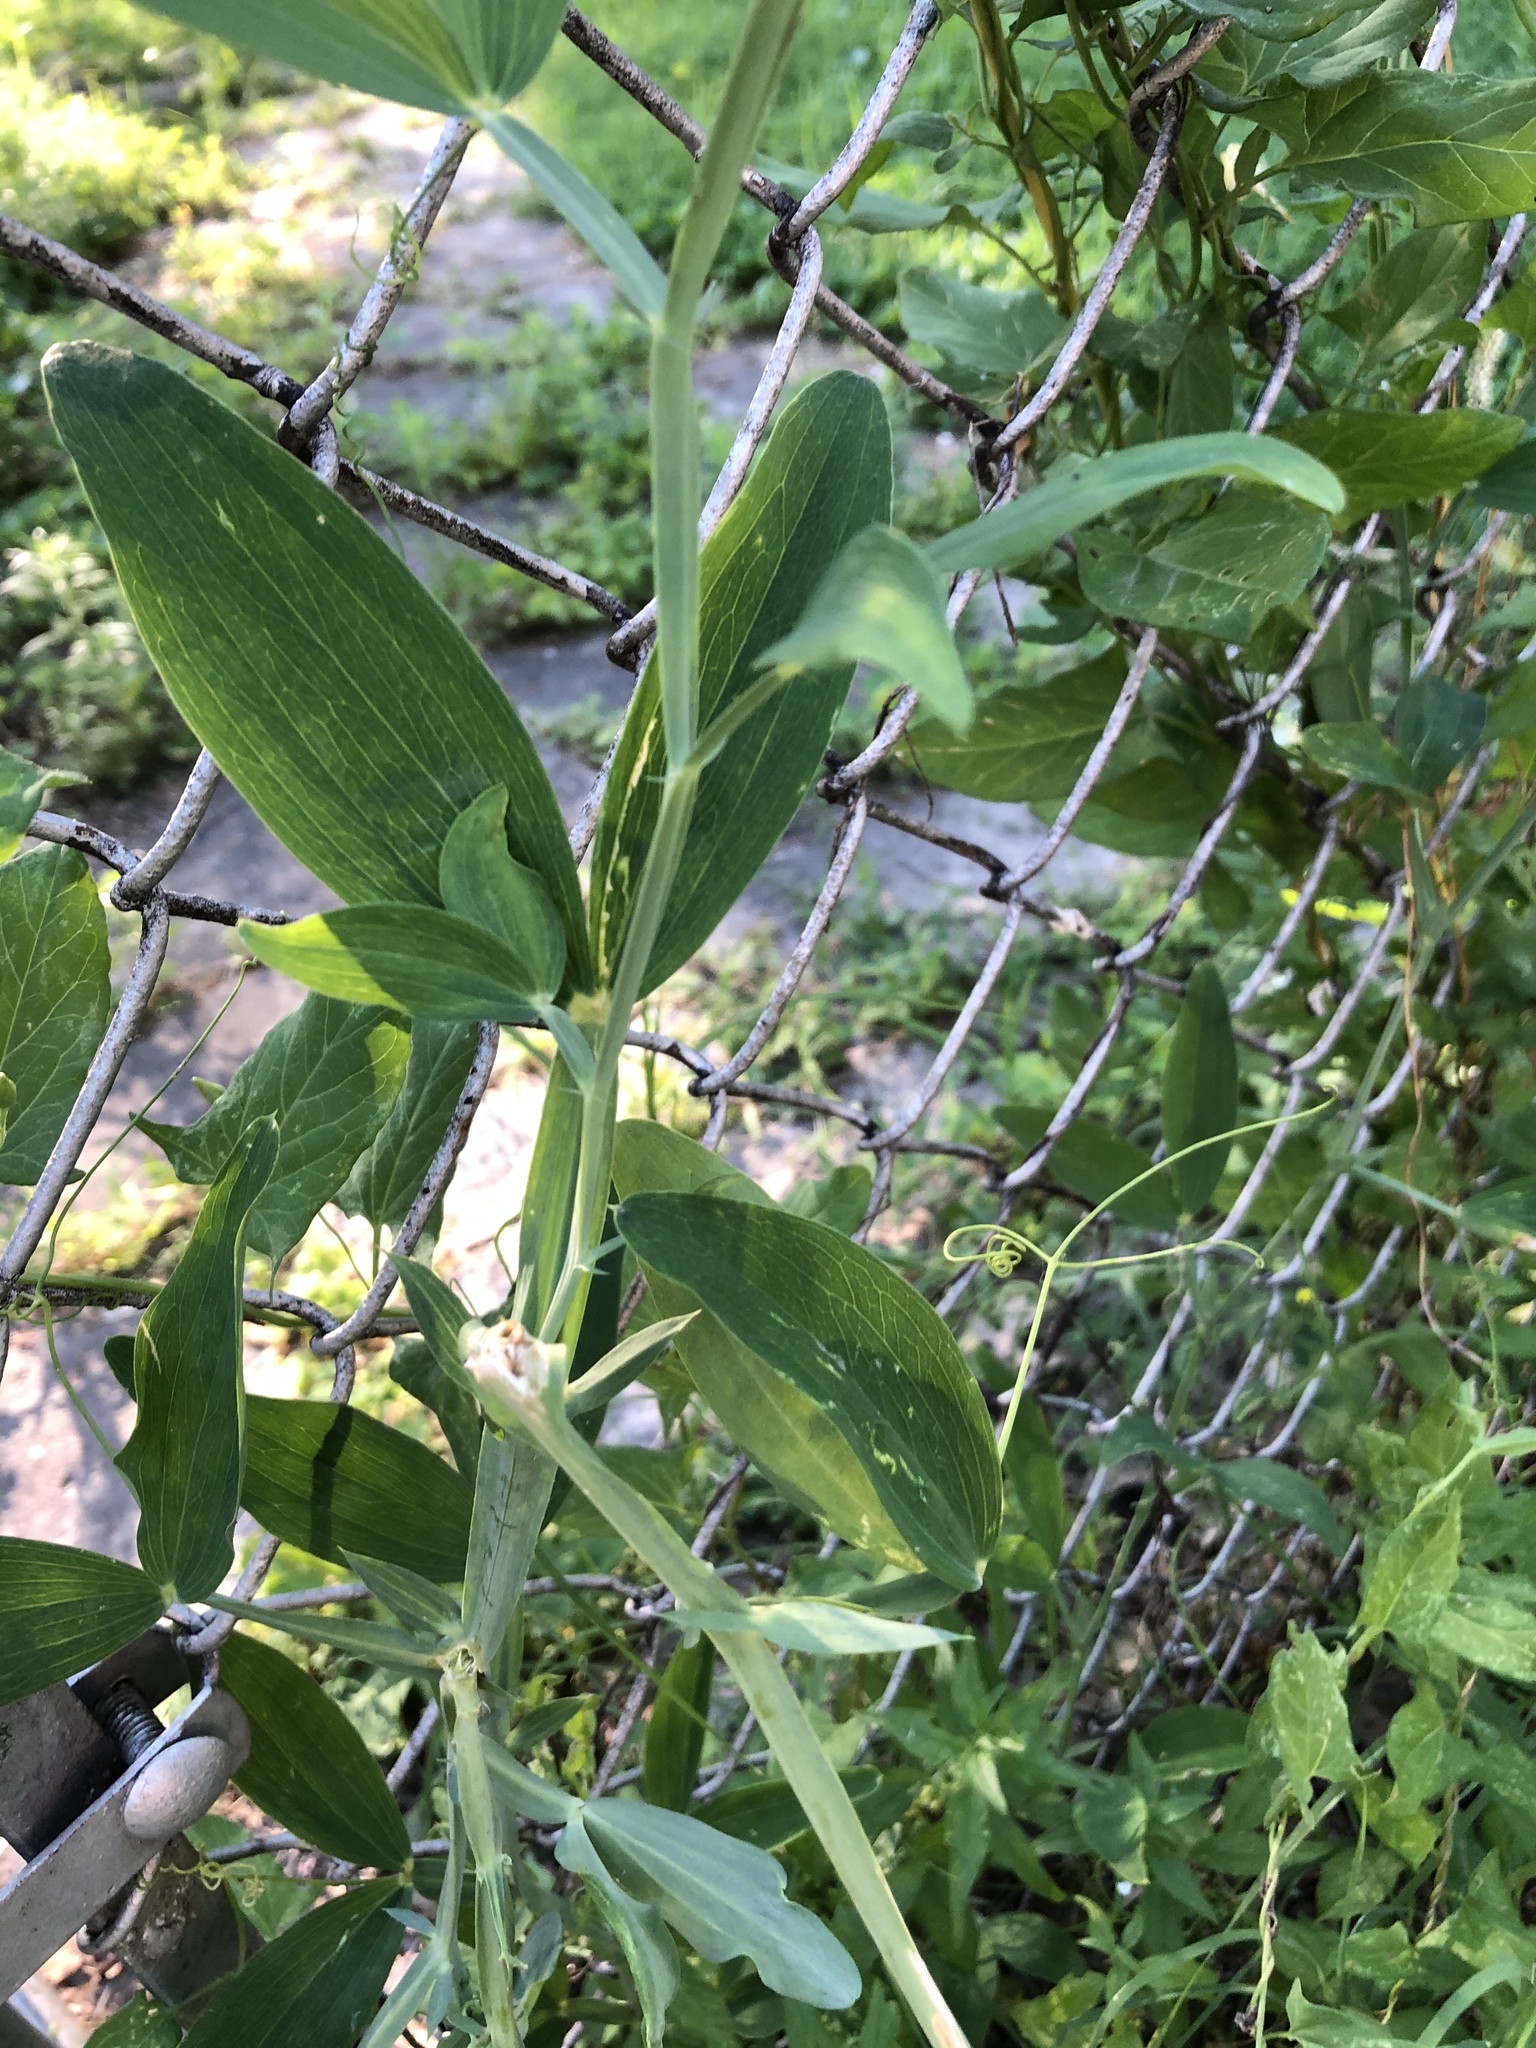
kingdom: Plantae
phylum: Tracheophyta
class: Magnoliopsida
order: Fabales
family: Fabaceae
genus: Lathyrus
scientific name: Lathyrus latifolius
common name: Perennial pea
